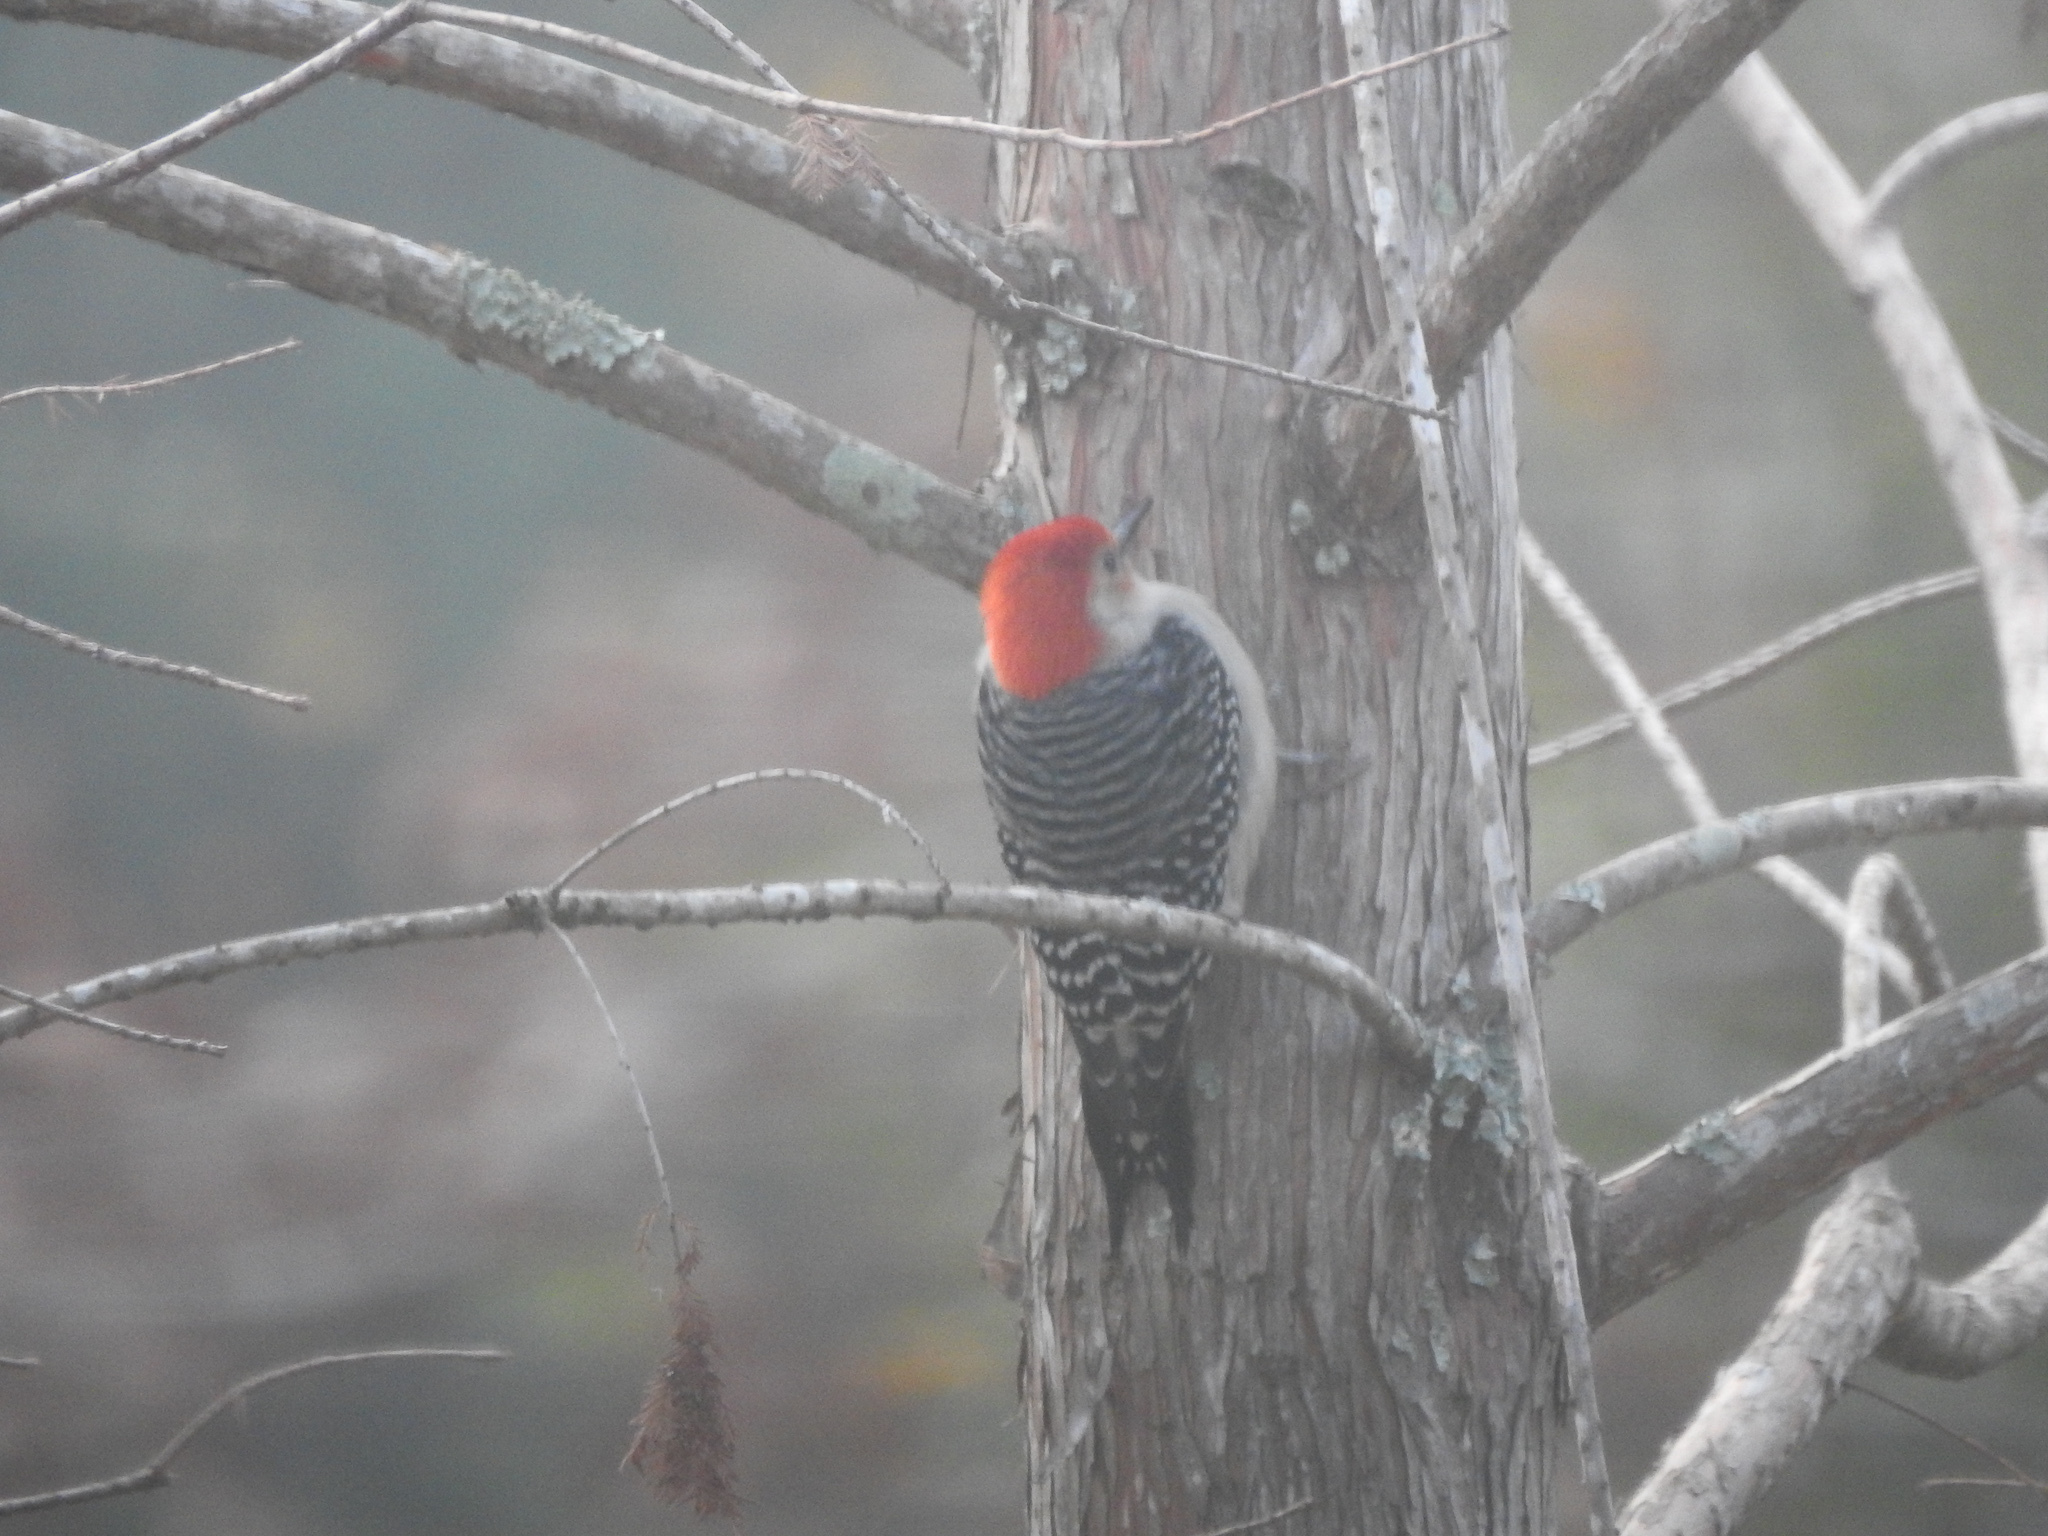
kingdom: Animalia
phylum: Chordata
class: Aves
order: Piciformes
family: Picidae
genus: Melanerpes
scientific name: Melanerpes carolinus
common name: Red-bellied woodpecker
